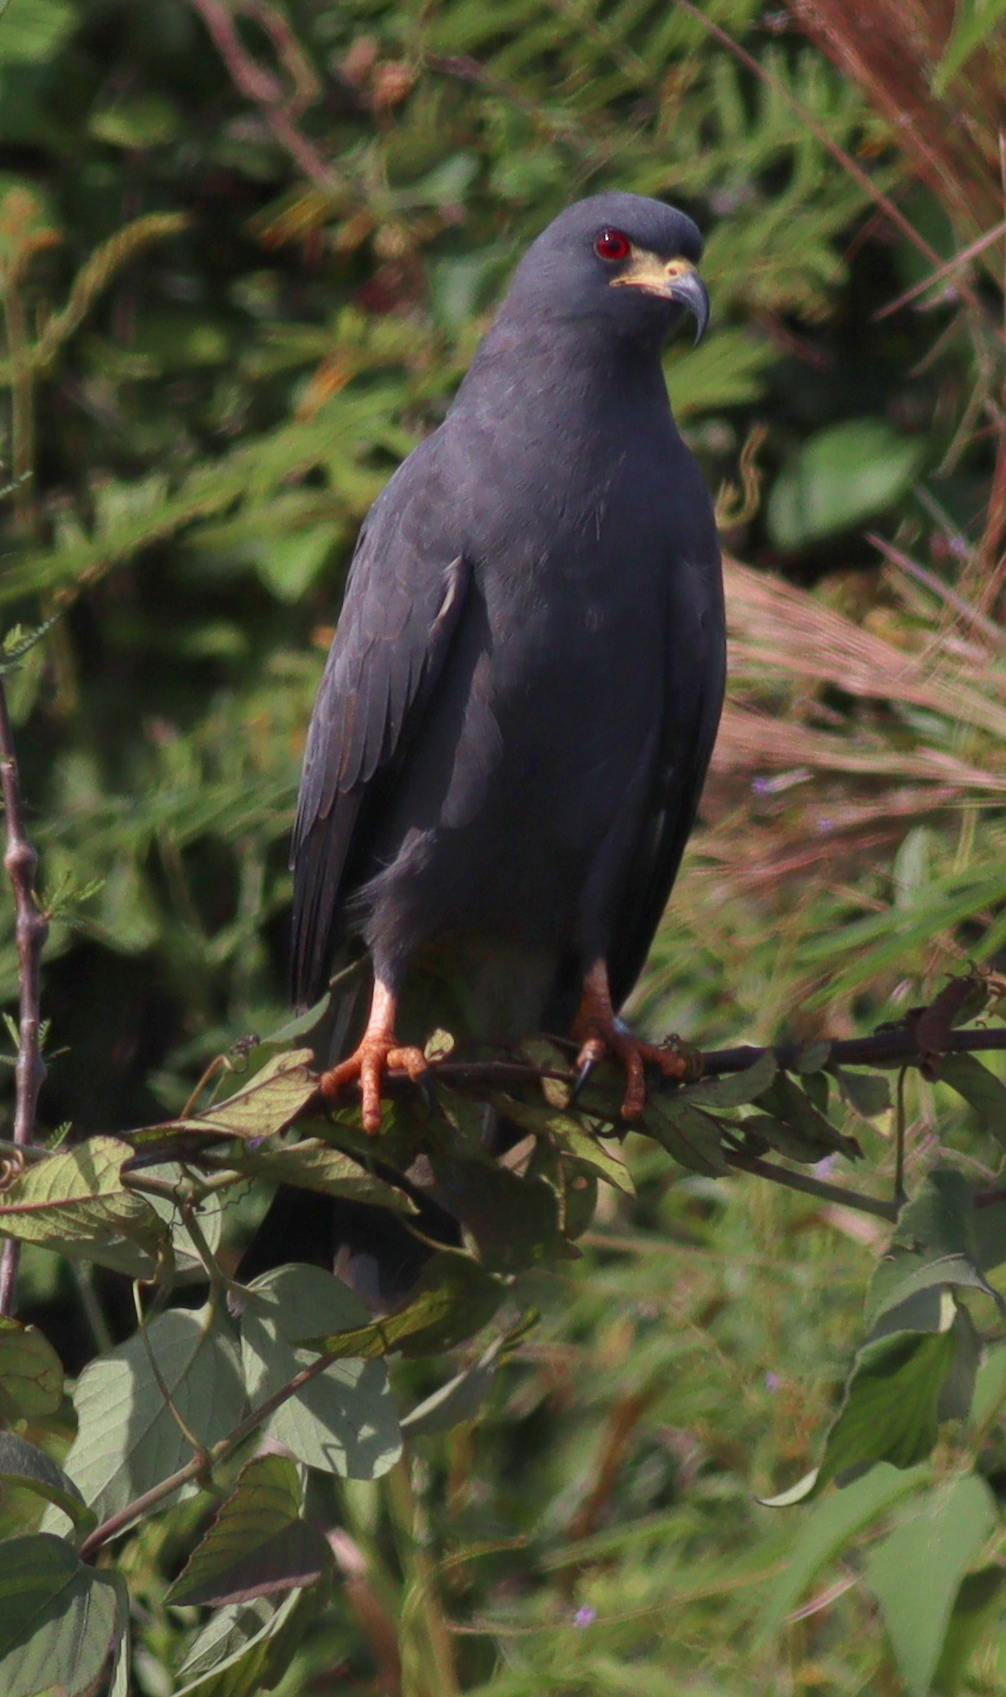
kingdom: Animalia
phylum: Chordata
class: Aves
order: Accipitriformes
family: Accipitridae
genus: Rostrhamus
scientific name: Rostrhamus sociabilis
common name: Snail kite
